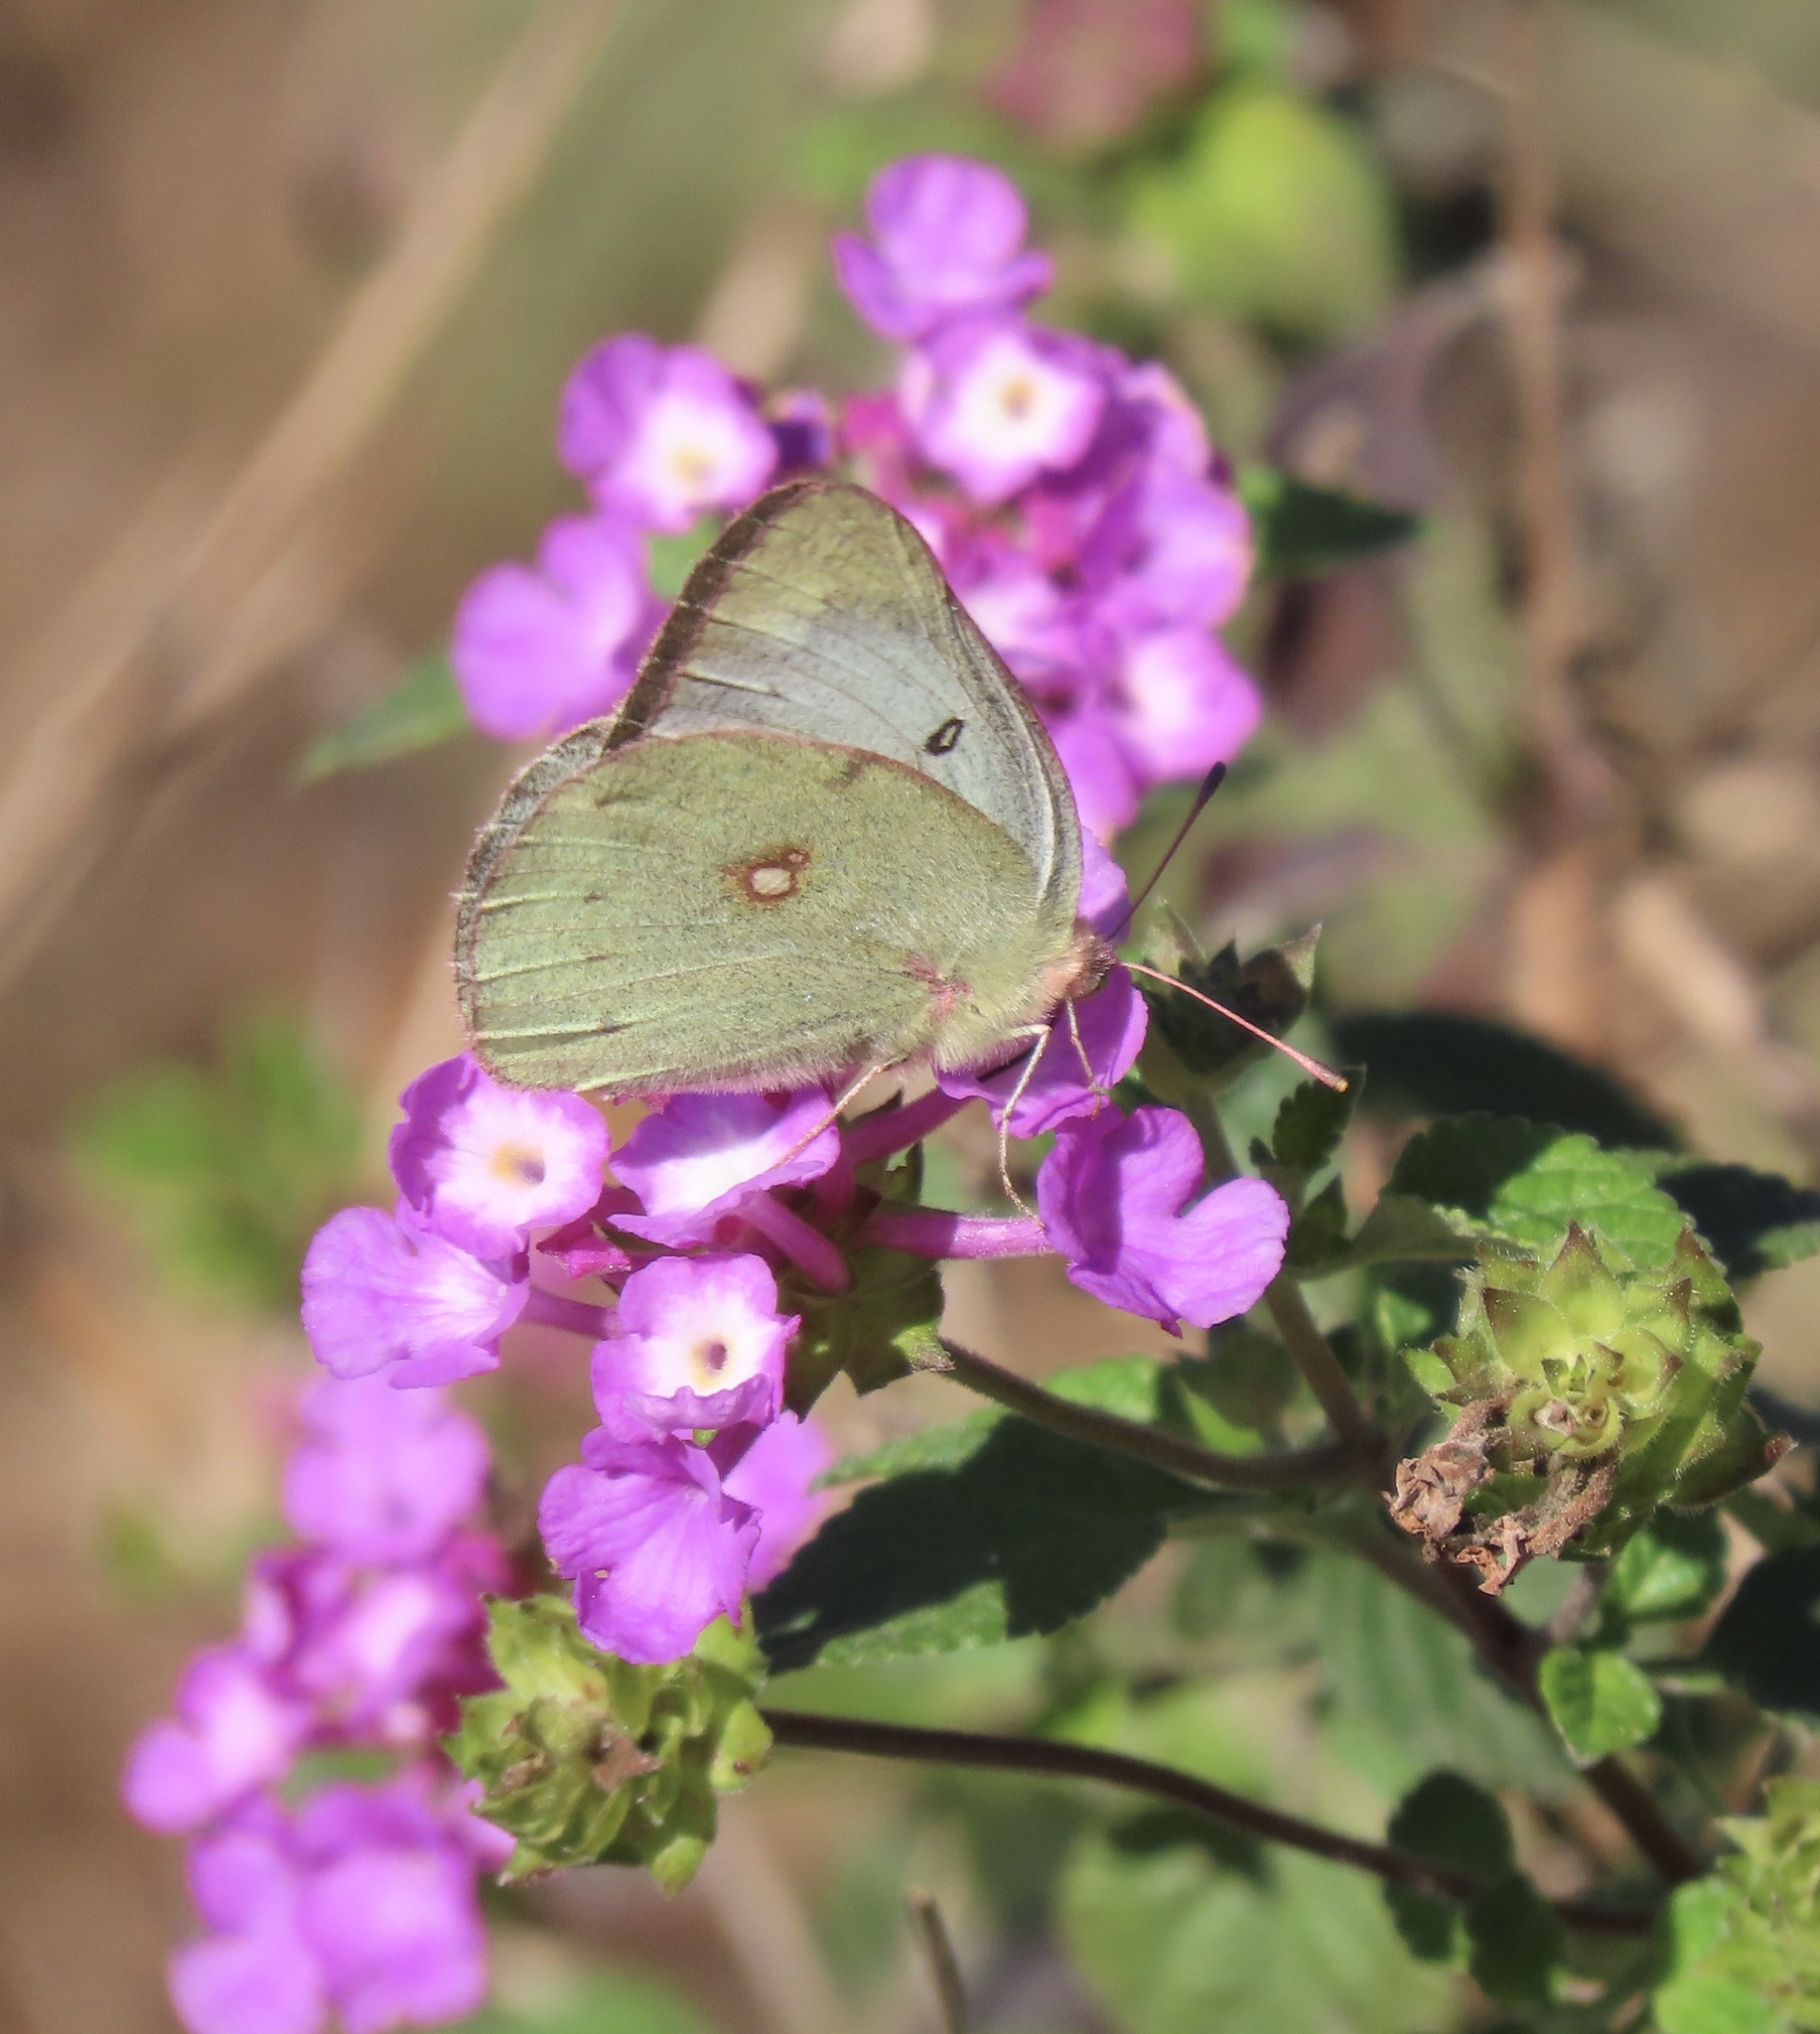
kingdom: Animalia
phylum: Arthropoda
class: Insecta
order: Lepidoptera
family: Pieridae
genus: Colias
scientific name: Colias eurytheme
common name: Alfalfa butterfly
